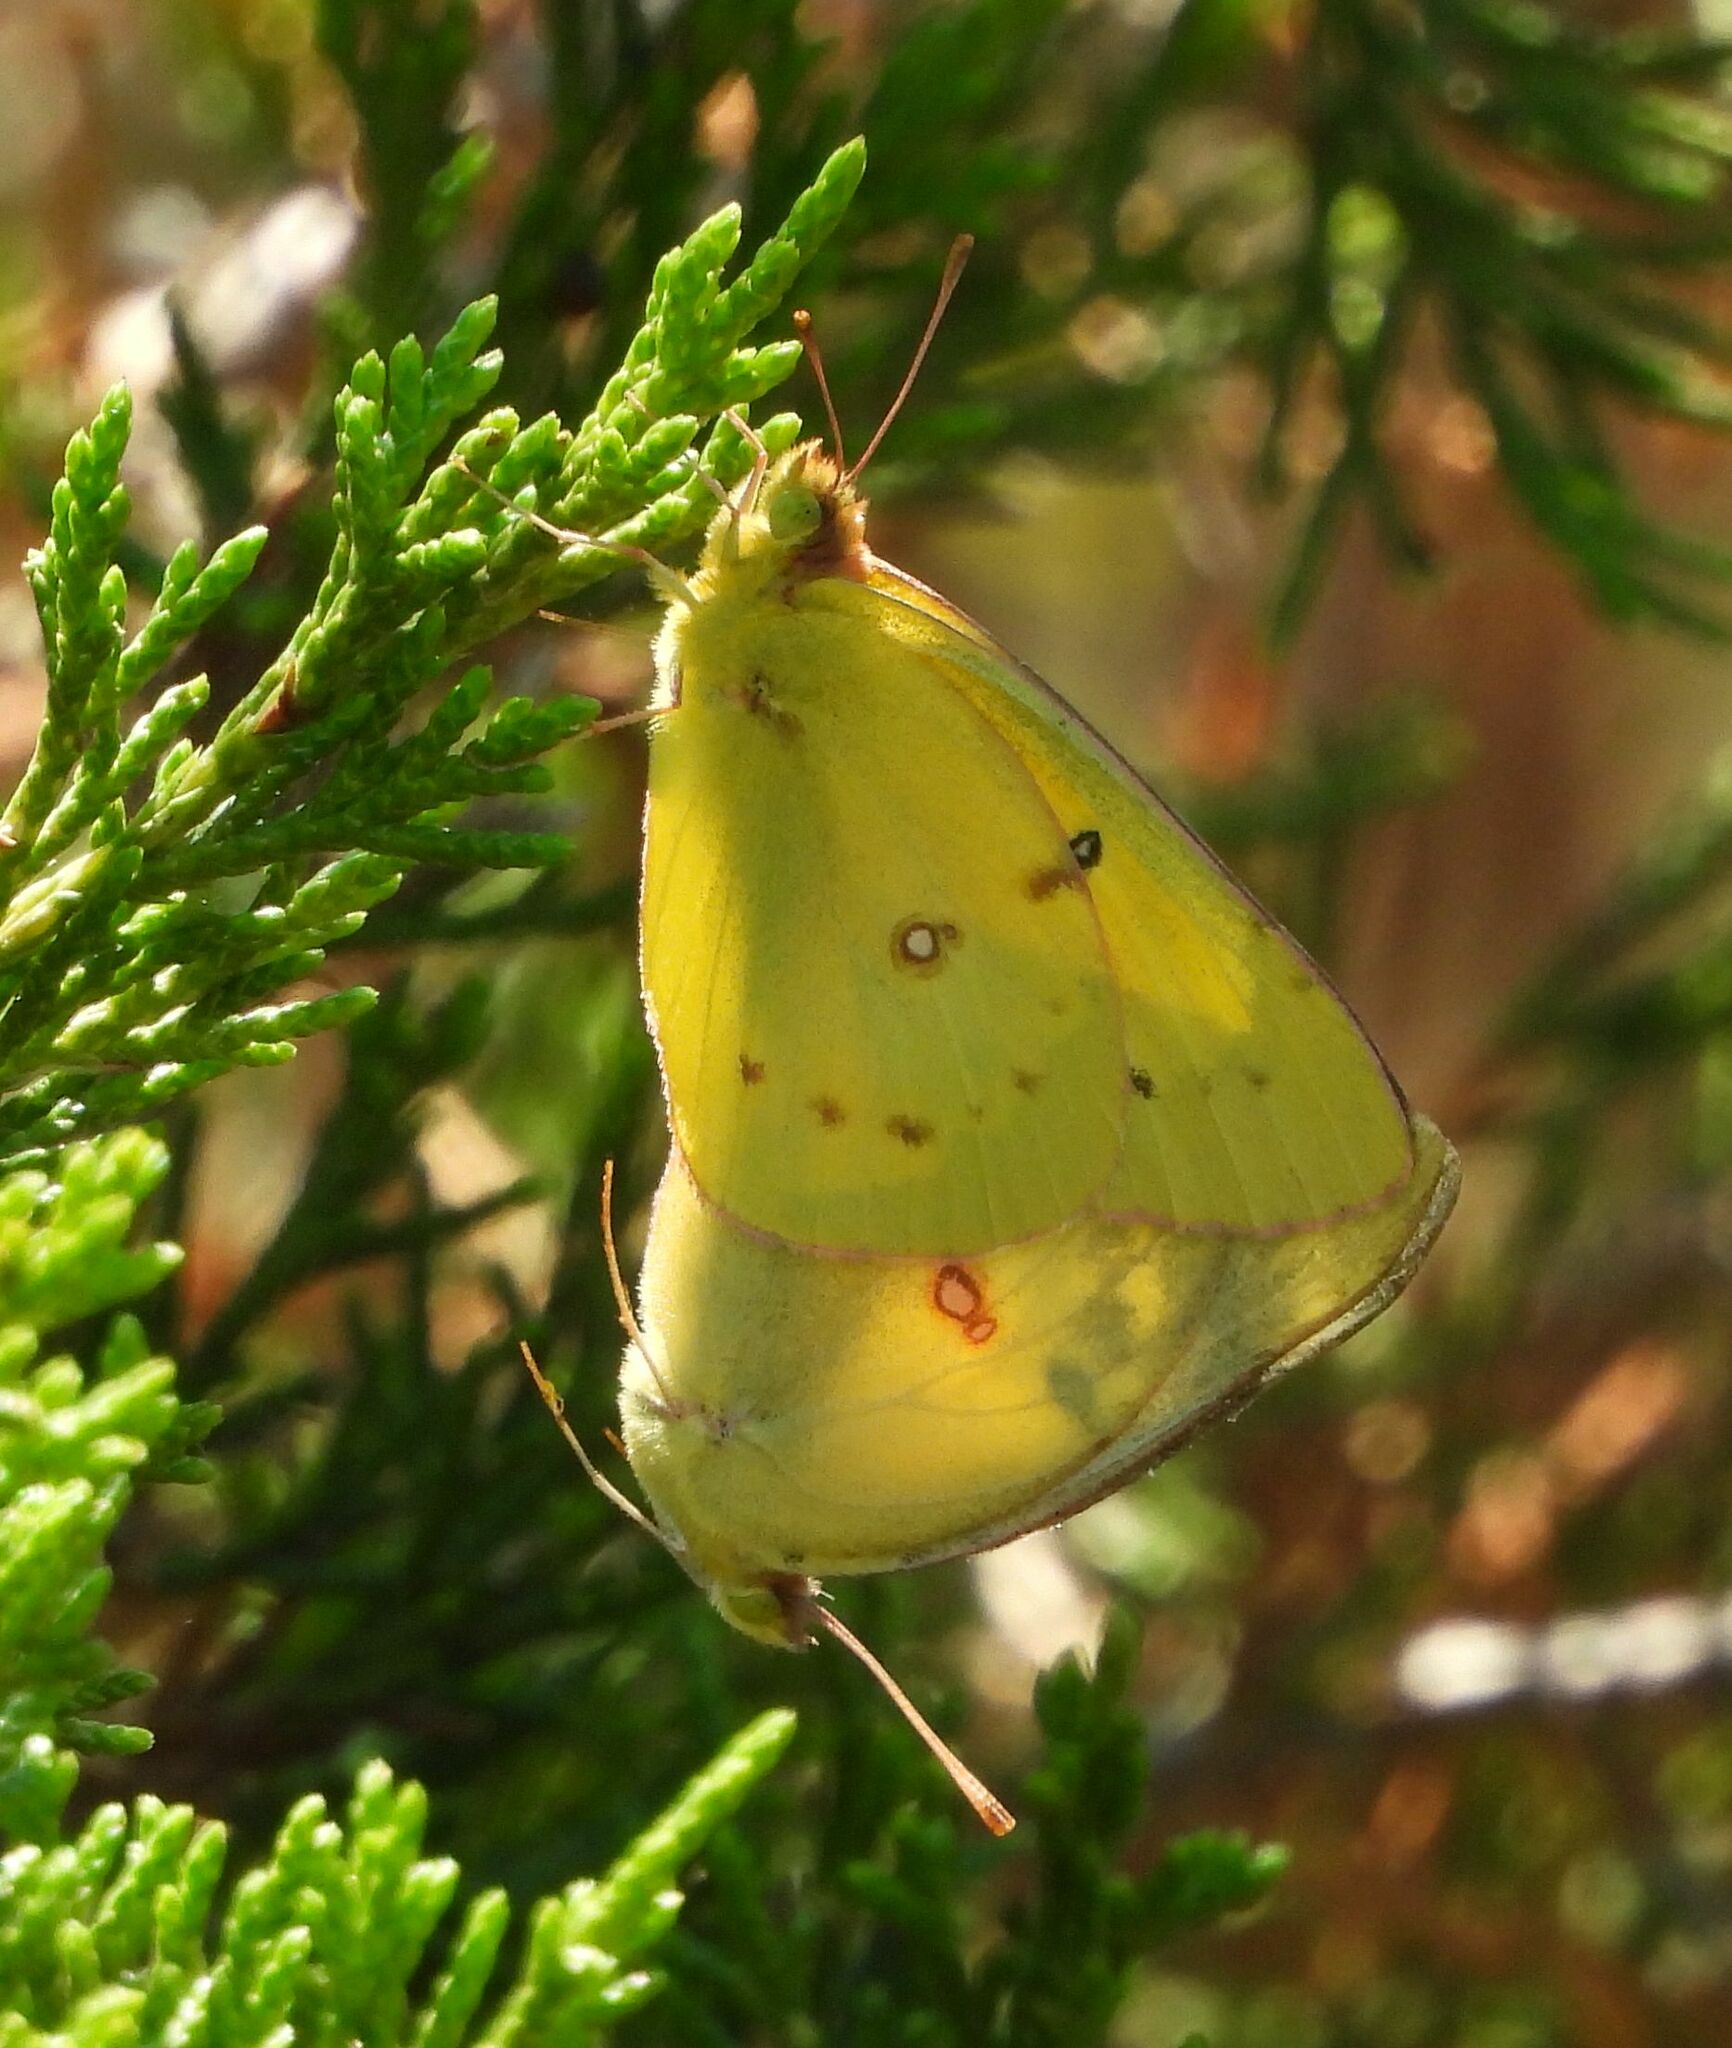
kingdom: Animalia
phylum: Arthropoda
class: Insecta
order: Lepidoptera
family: Pieridae
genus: Colias
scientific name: Colias eurytheme
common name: Alfalfa butterfly
